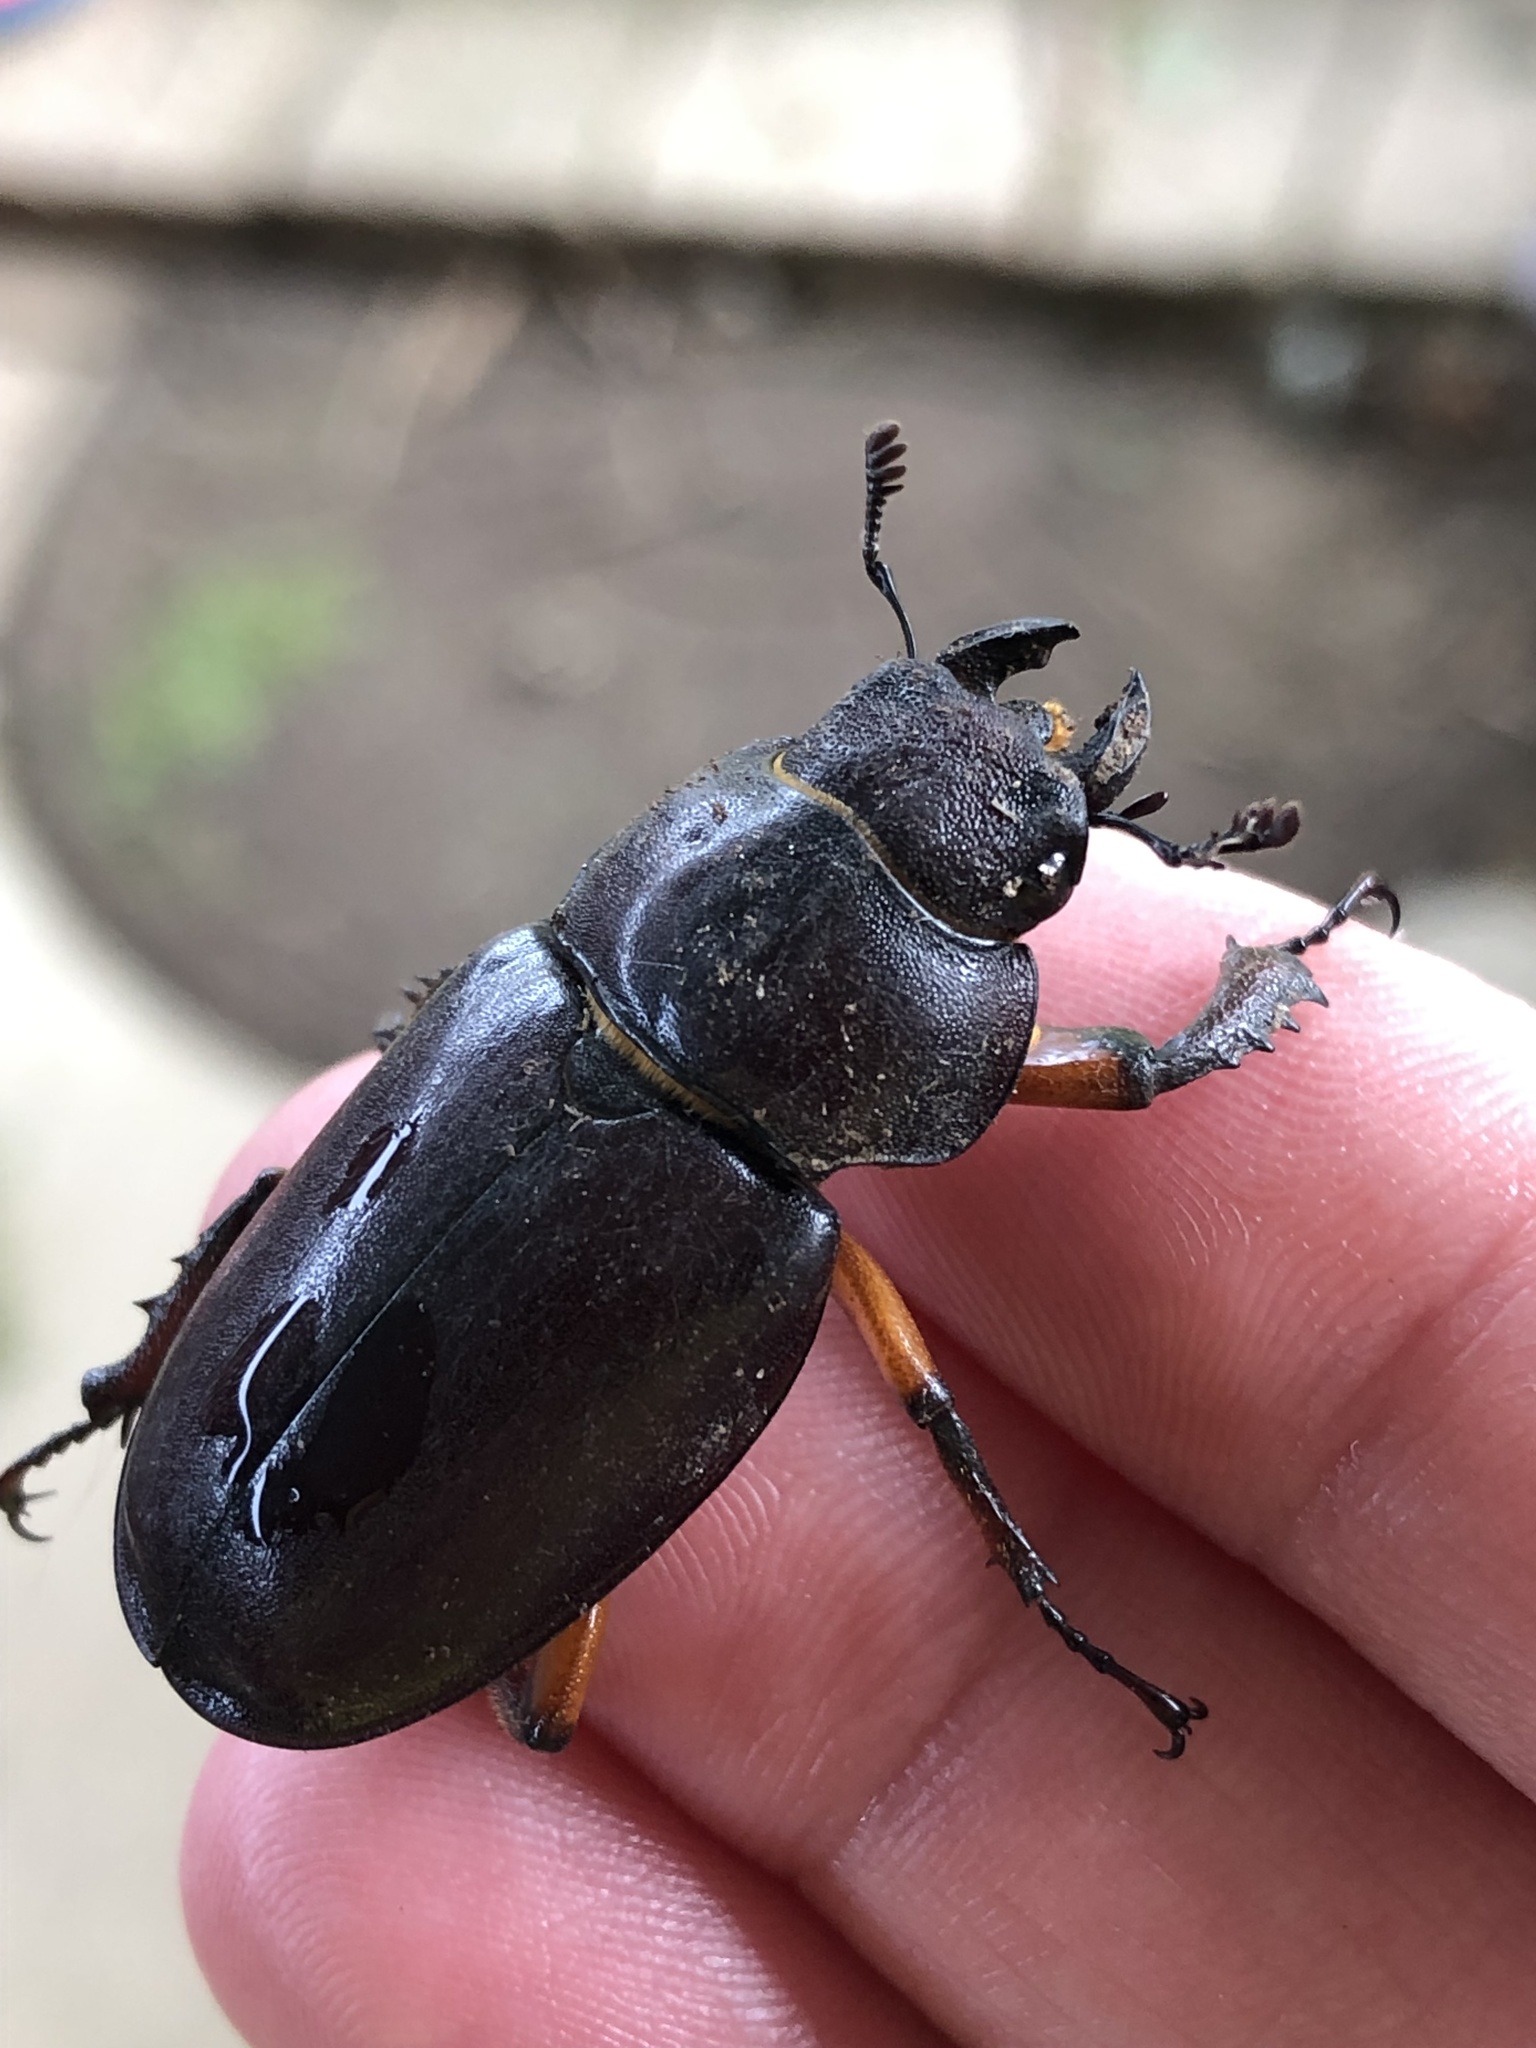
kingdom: Animalia
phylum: Arthropoda
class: Insecta
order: Coleoptera
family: Lucanidae
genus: Lucanus
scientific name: Lucanus capreolus
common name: Stag beetle
